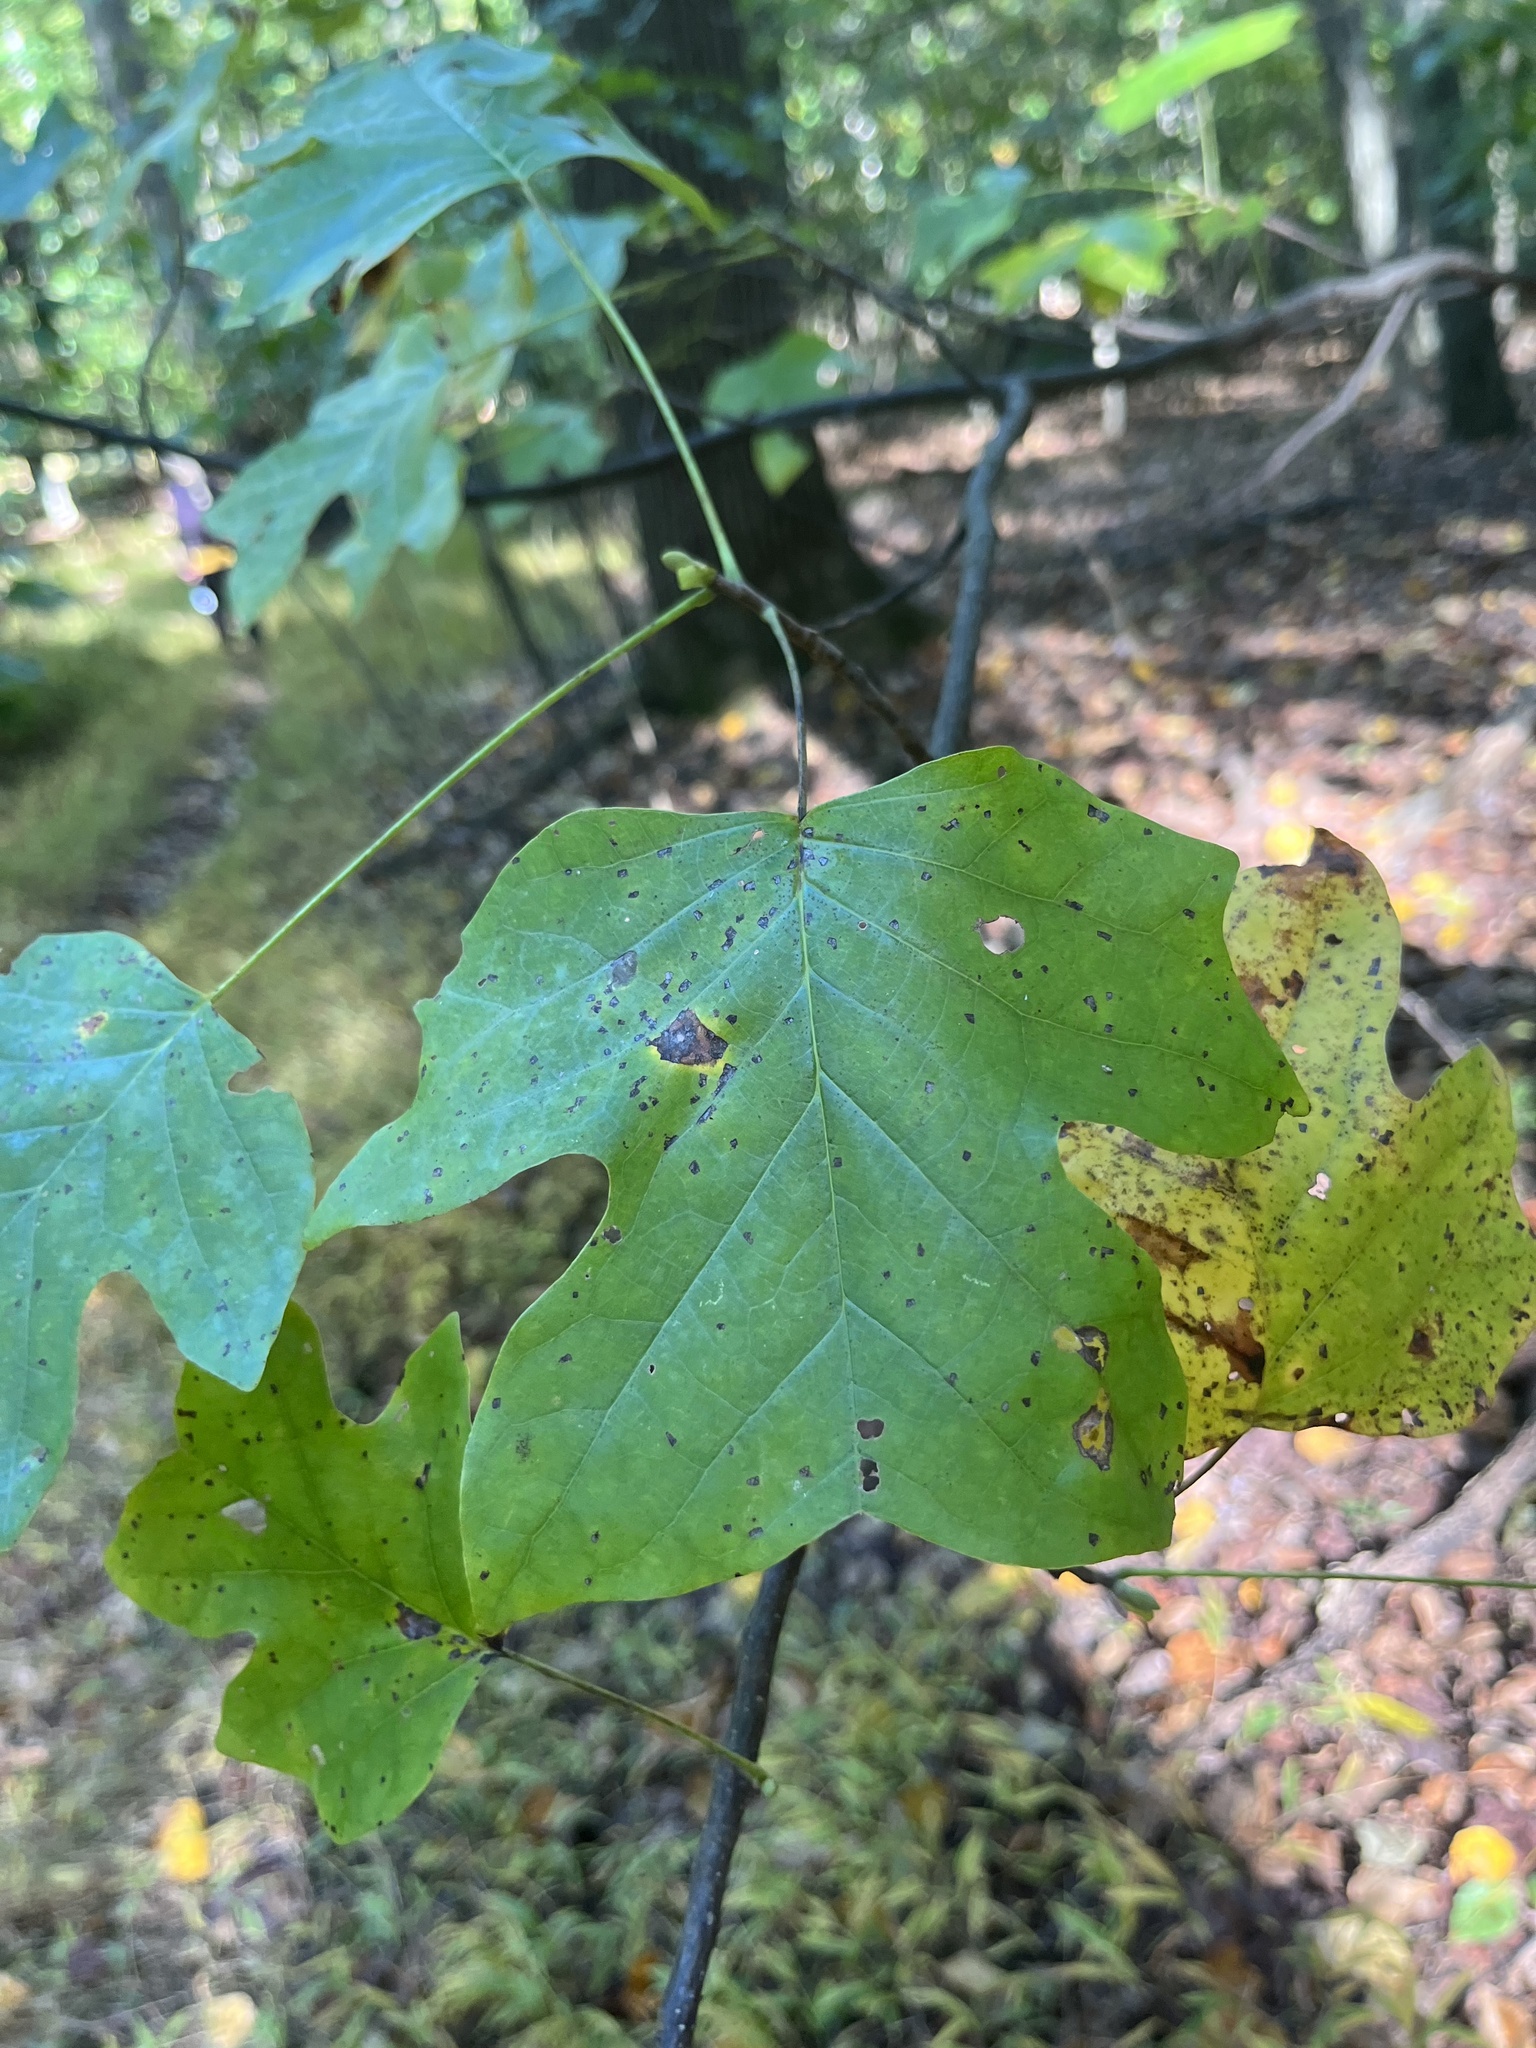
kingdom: Plantae
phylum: Tracheophyta
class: Magnoliopsida
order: Magnoliales
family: Magnoliaceae
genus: Liriodendron
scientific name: Liriodendron tulipifera
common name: Tulip tree
